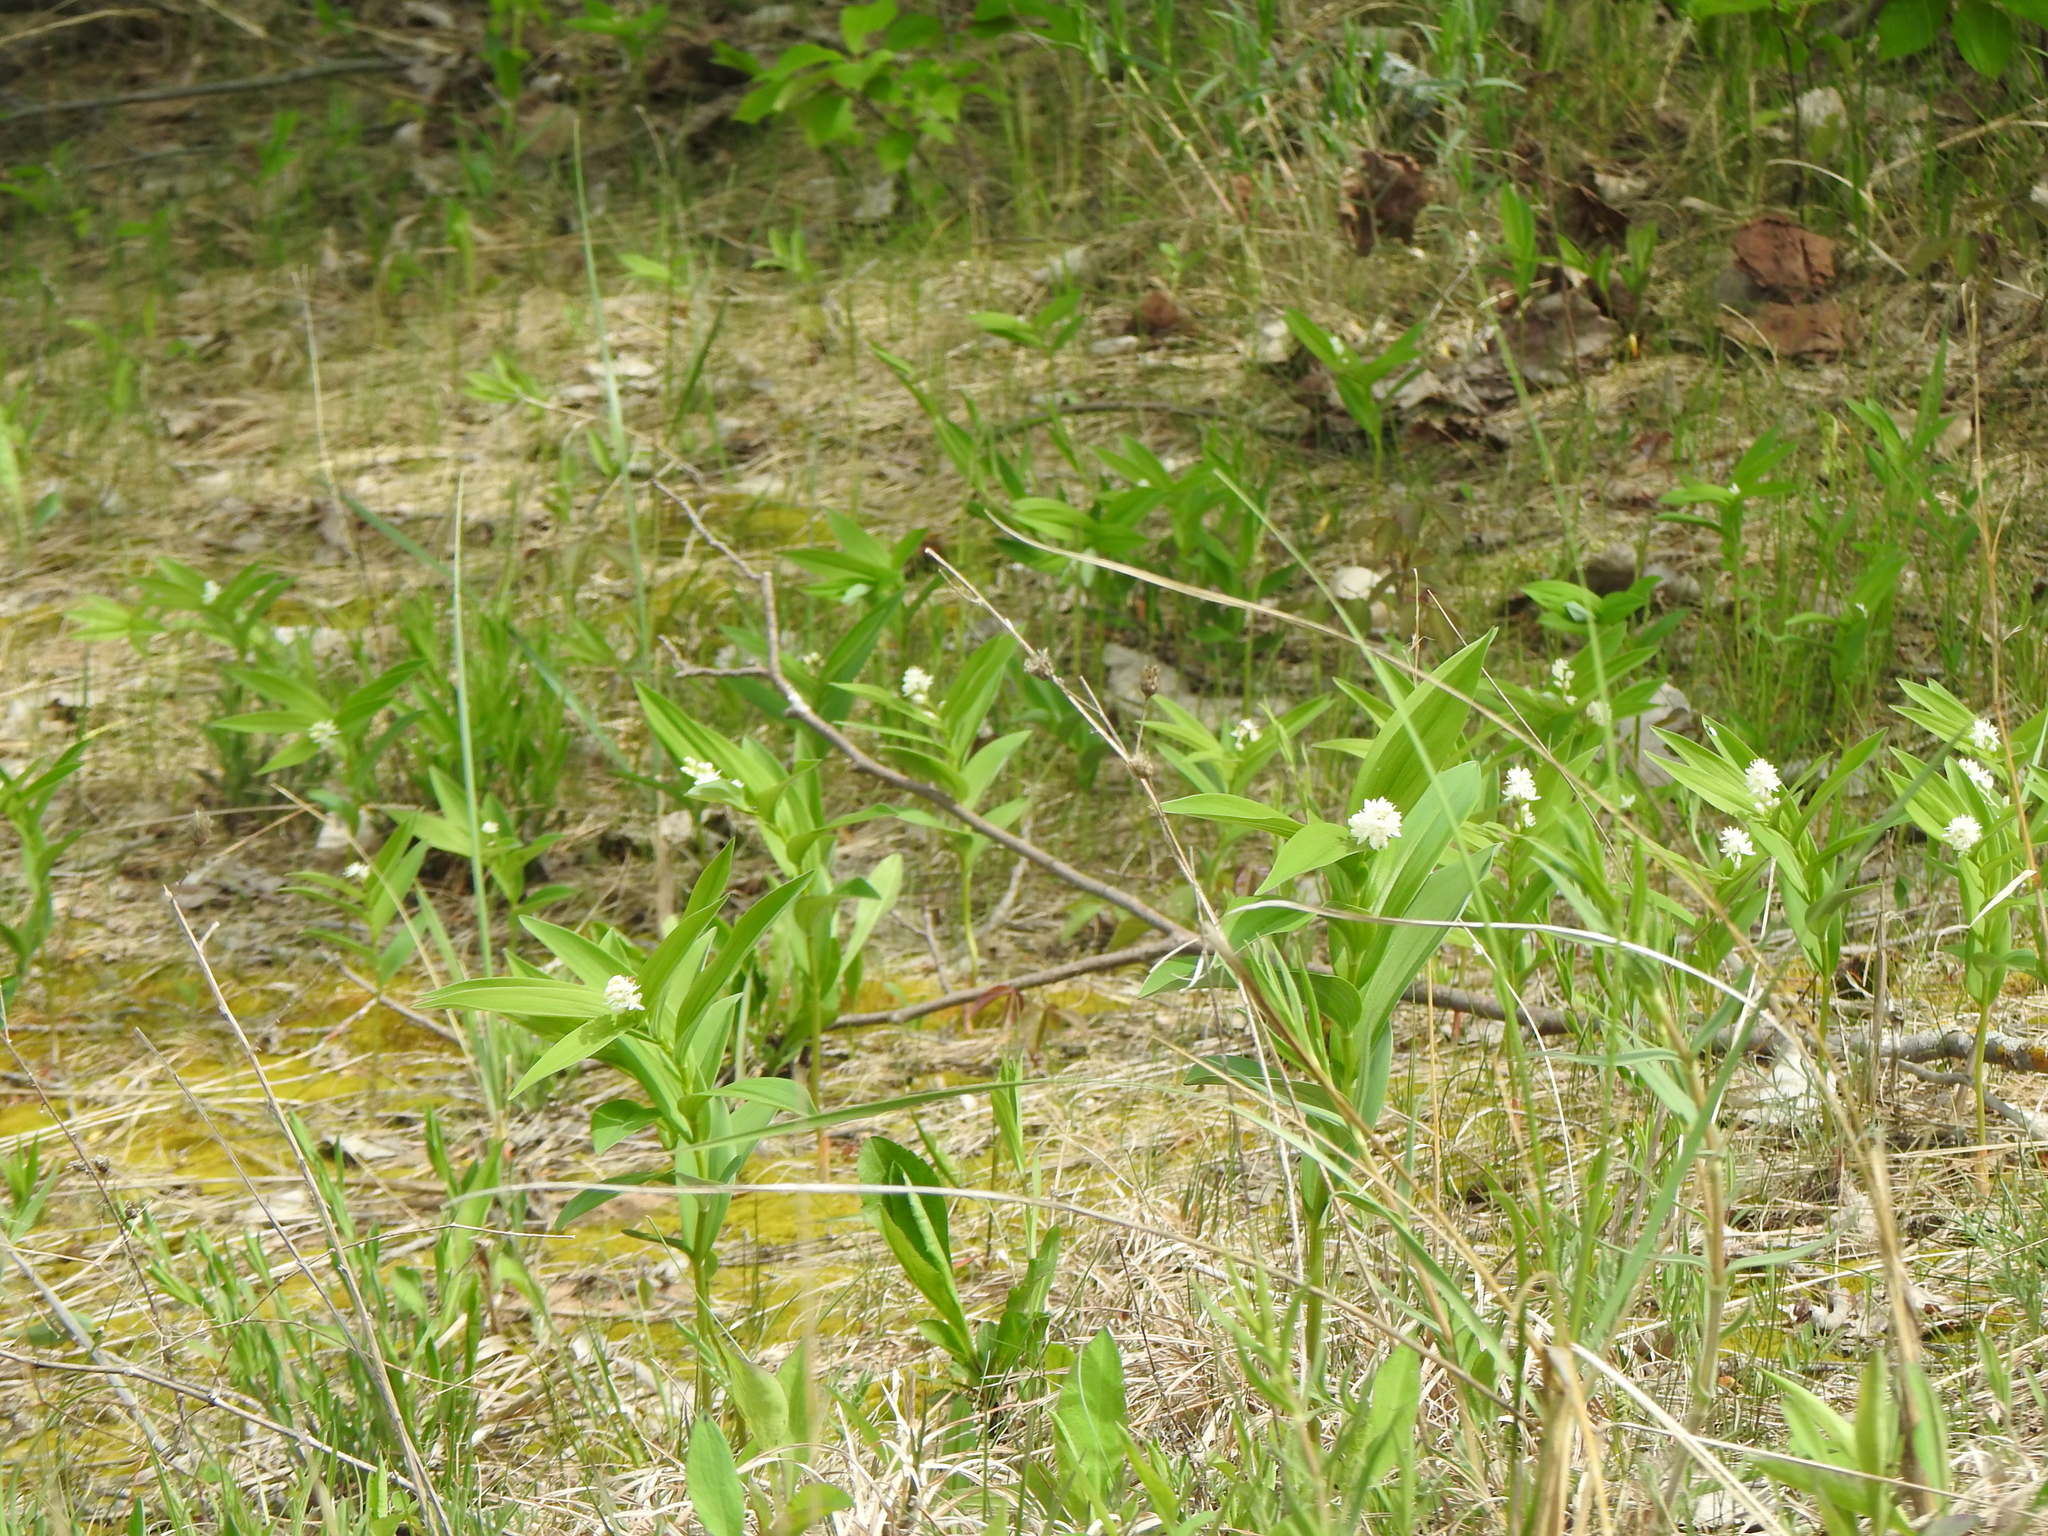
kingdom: Plantae
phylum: Tracheophyta
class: Liliopsida
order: Asparagales
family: Asparagaceae
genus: Maianthemum
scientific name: Maianthemum stellatum
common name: Little false solomon's seal
